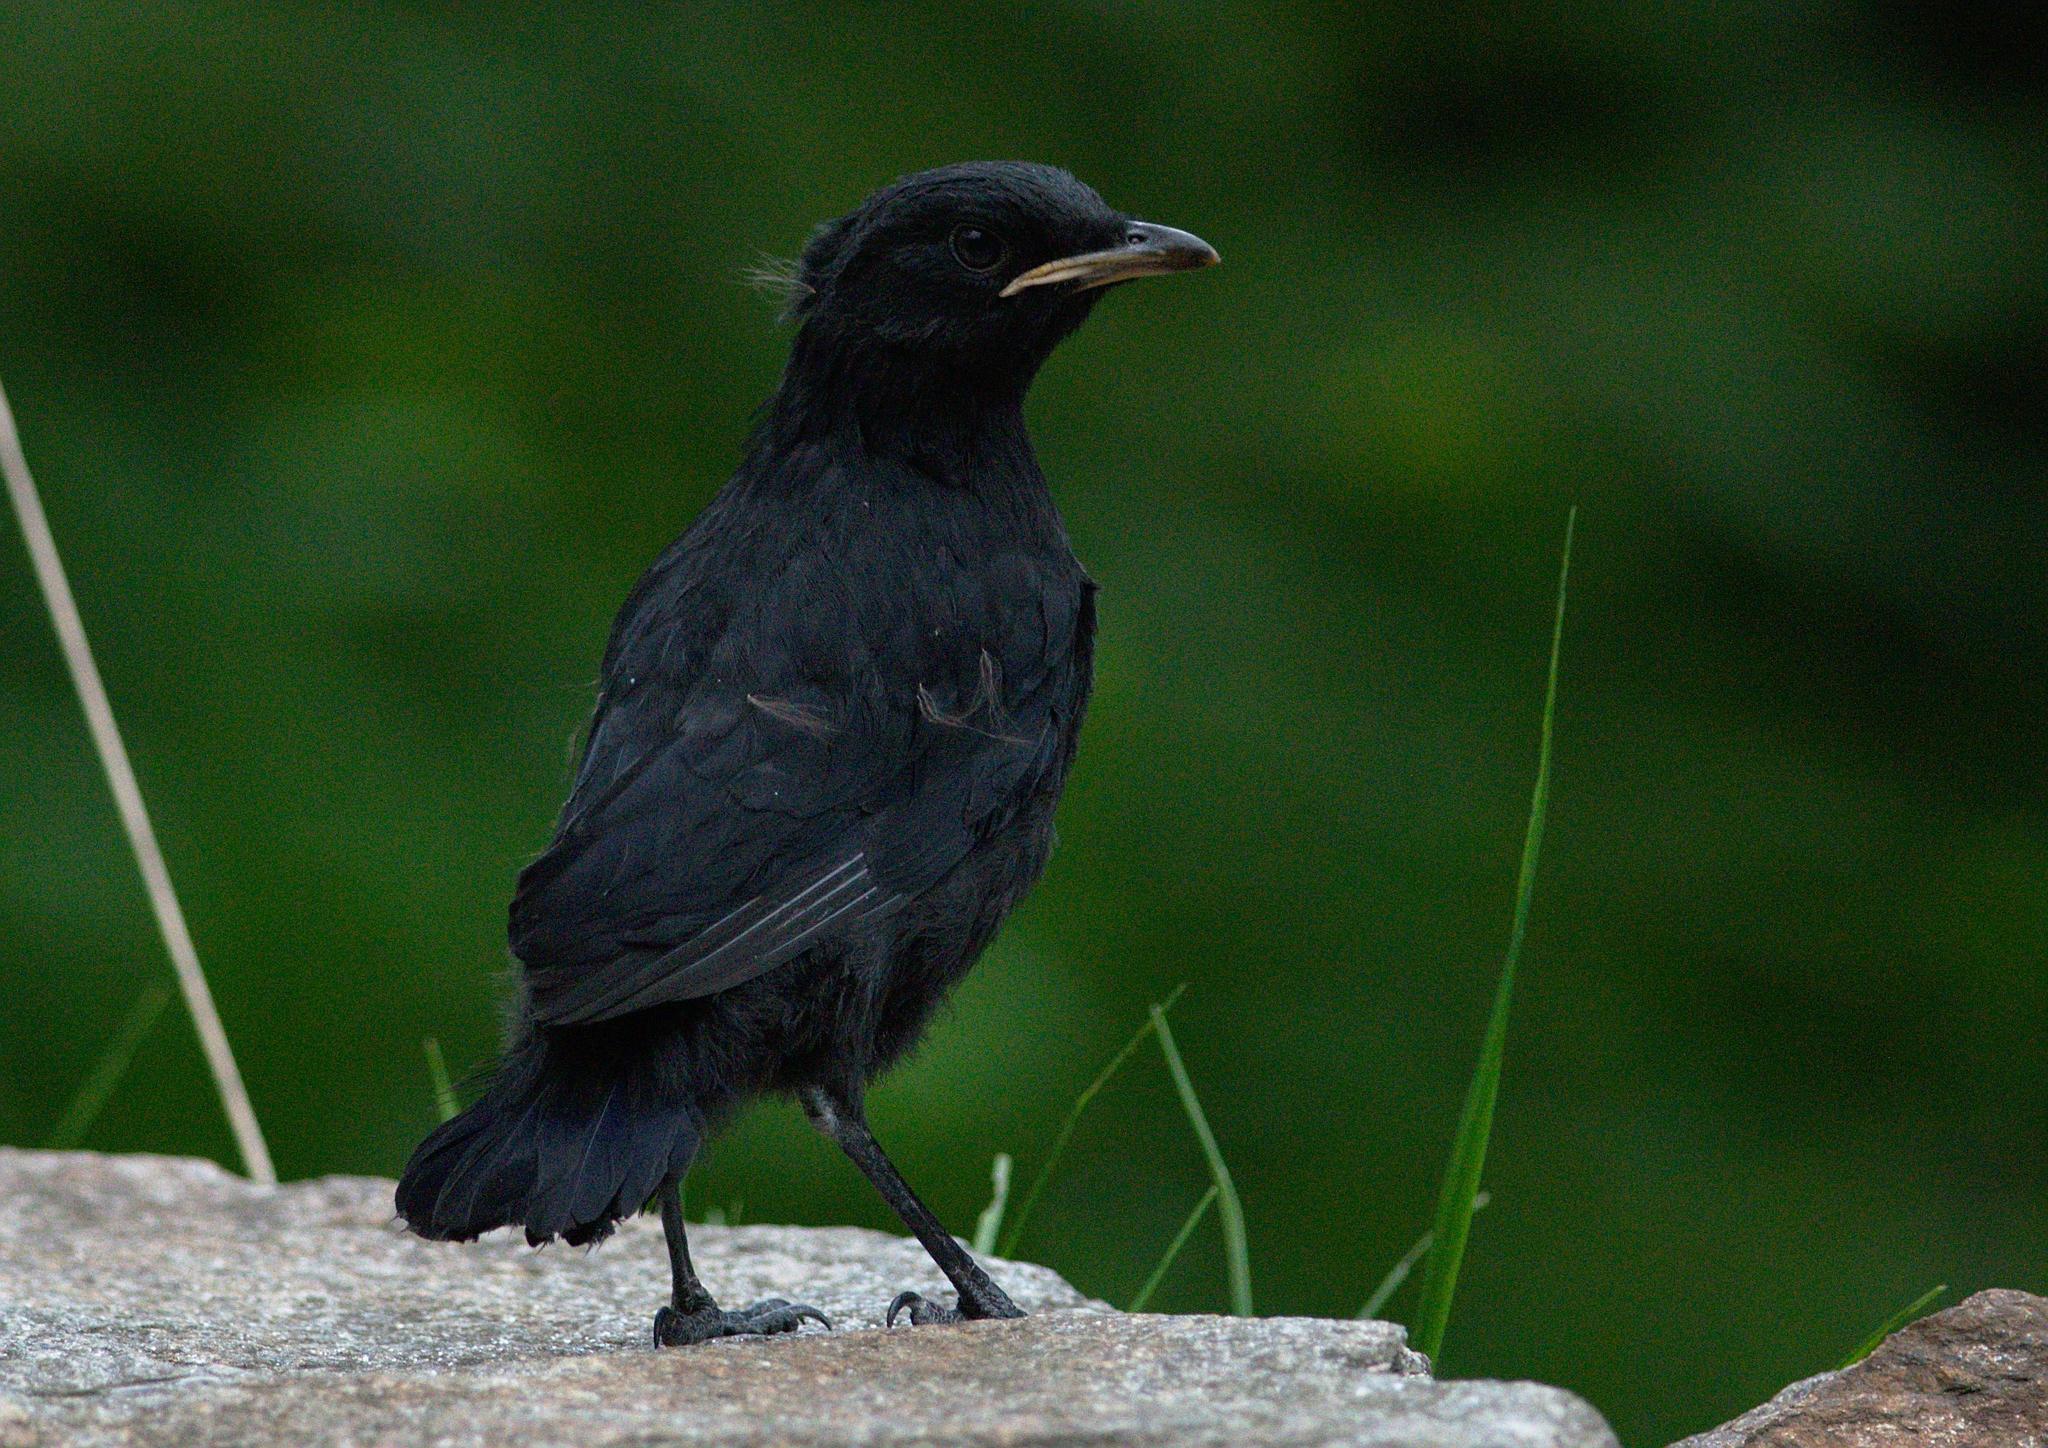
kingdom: Animalia
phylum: Chordata
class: Aves
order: Passeriformes
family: Muscicapidae
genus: Myophonus
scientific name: Myophonus caeruleus
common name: Blue whistling-thrush
